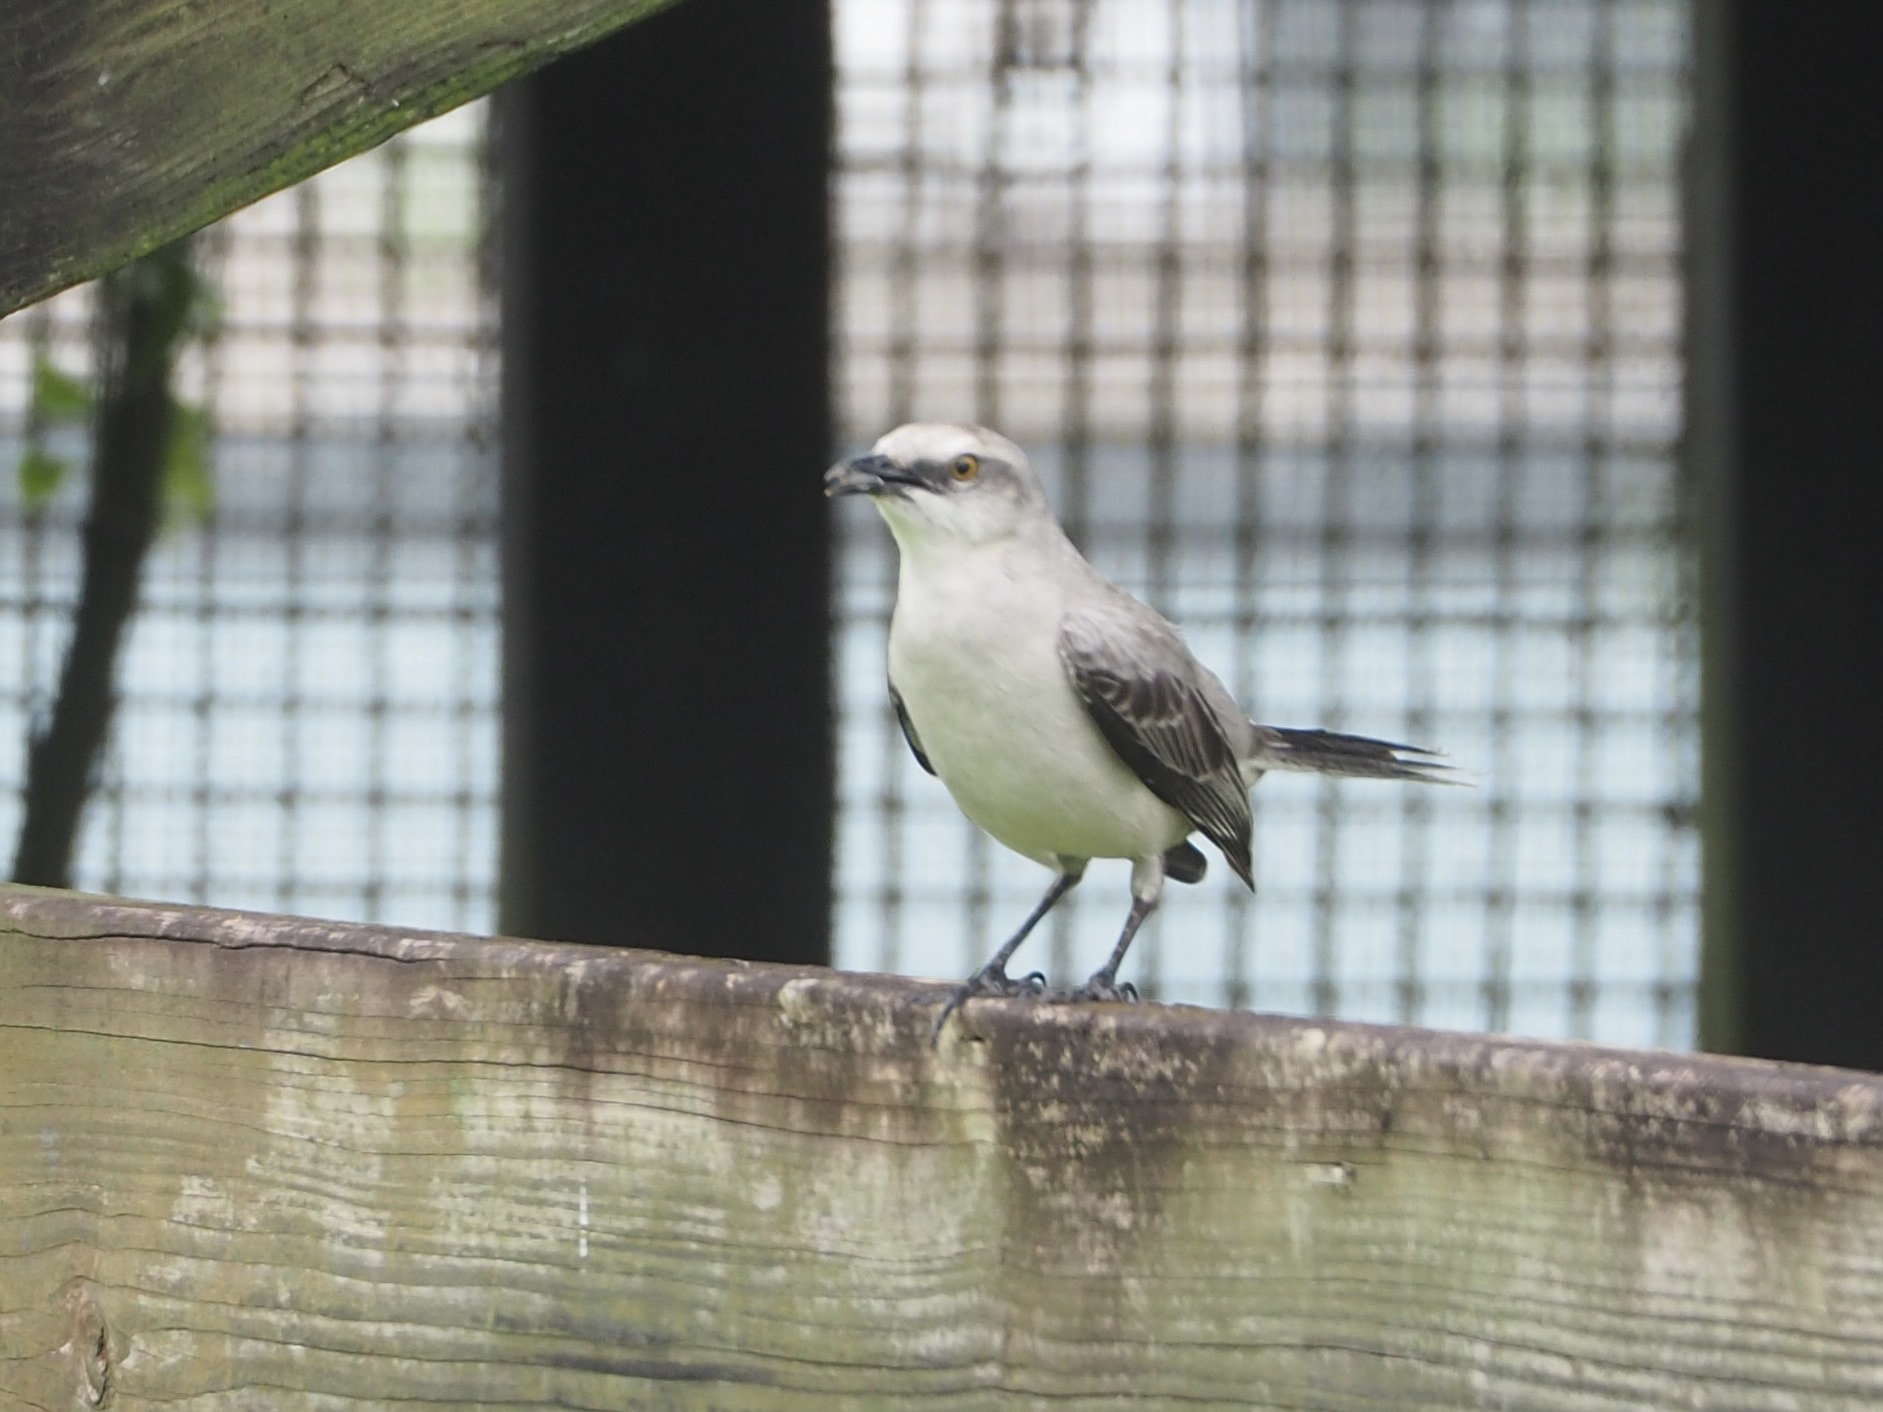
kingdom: Animalia
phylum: Chordata
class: Aves
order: Passeriformes
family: Mimidae
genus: Mimus
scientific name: Mimus gilvus
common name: Tropical mockingbird
